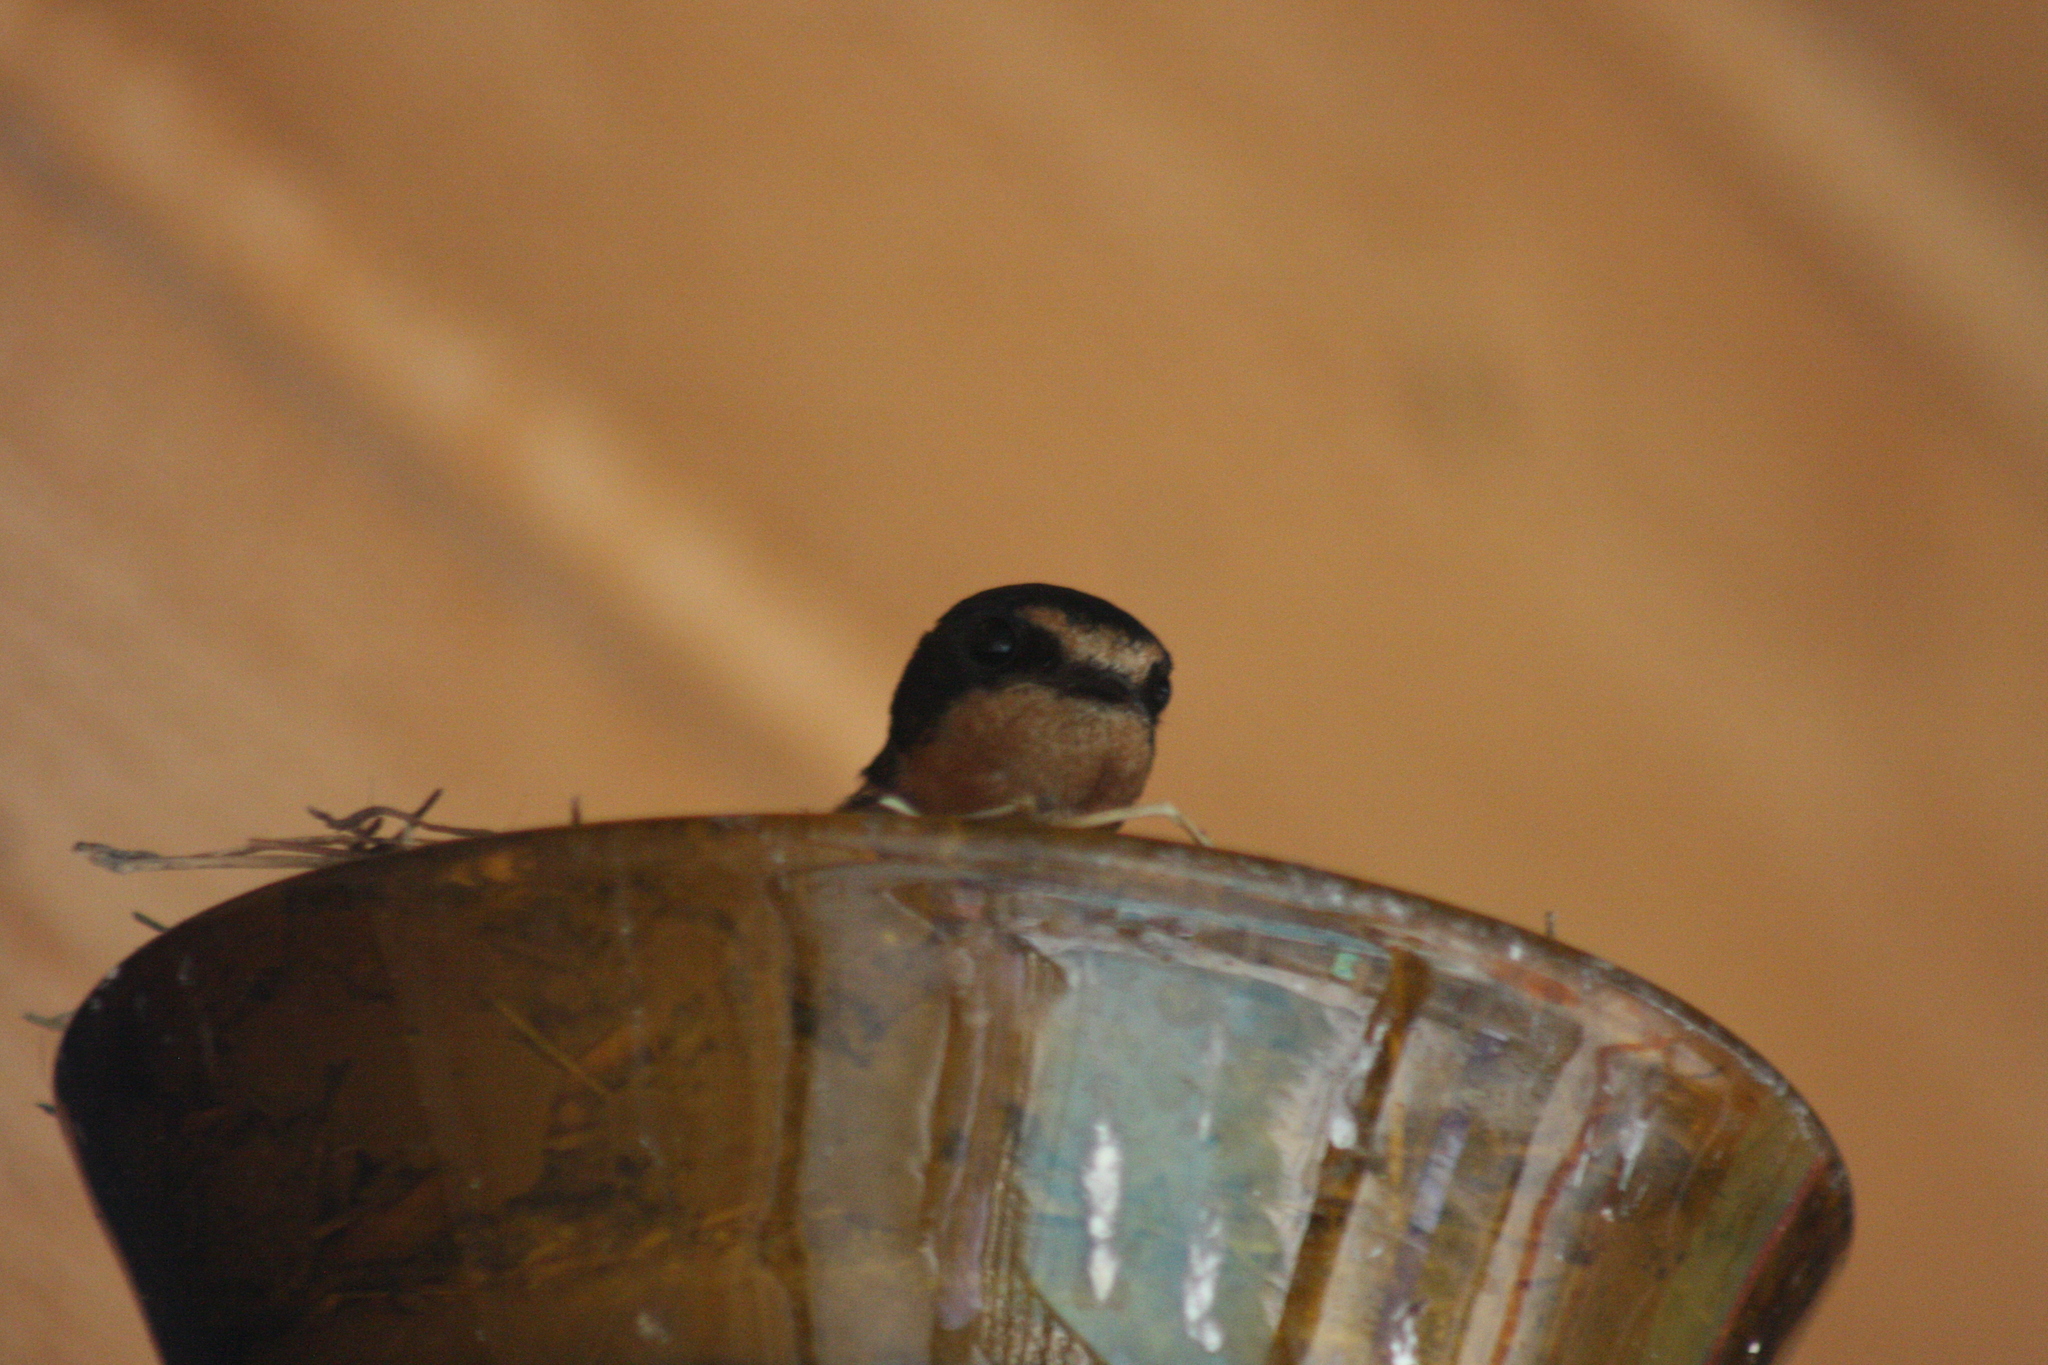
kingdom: Animalia
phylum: Chordata
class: Aves
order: Passeriformes
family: Hirundinidae
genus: Hirundo
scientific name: Hirundo rustica
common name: Barn swallow
